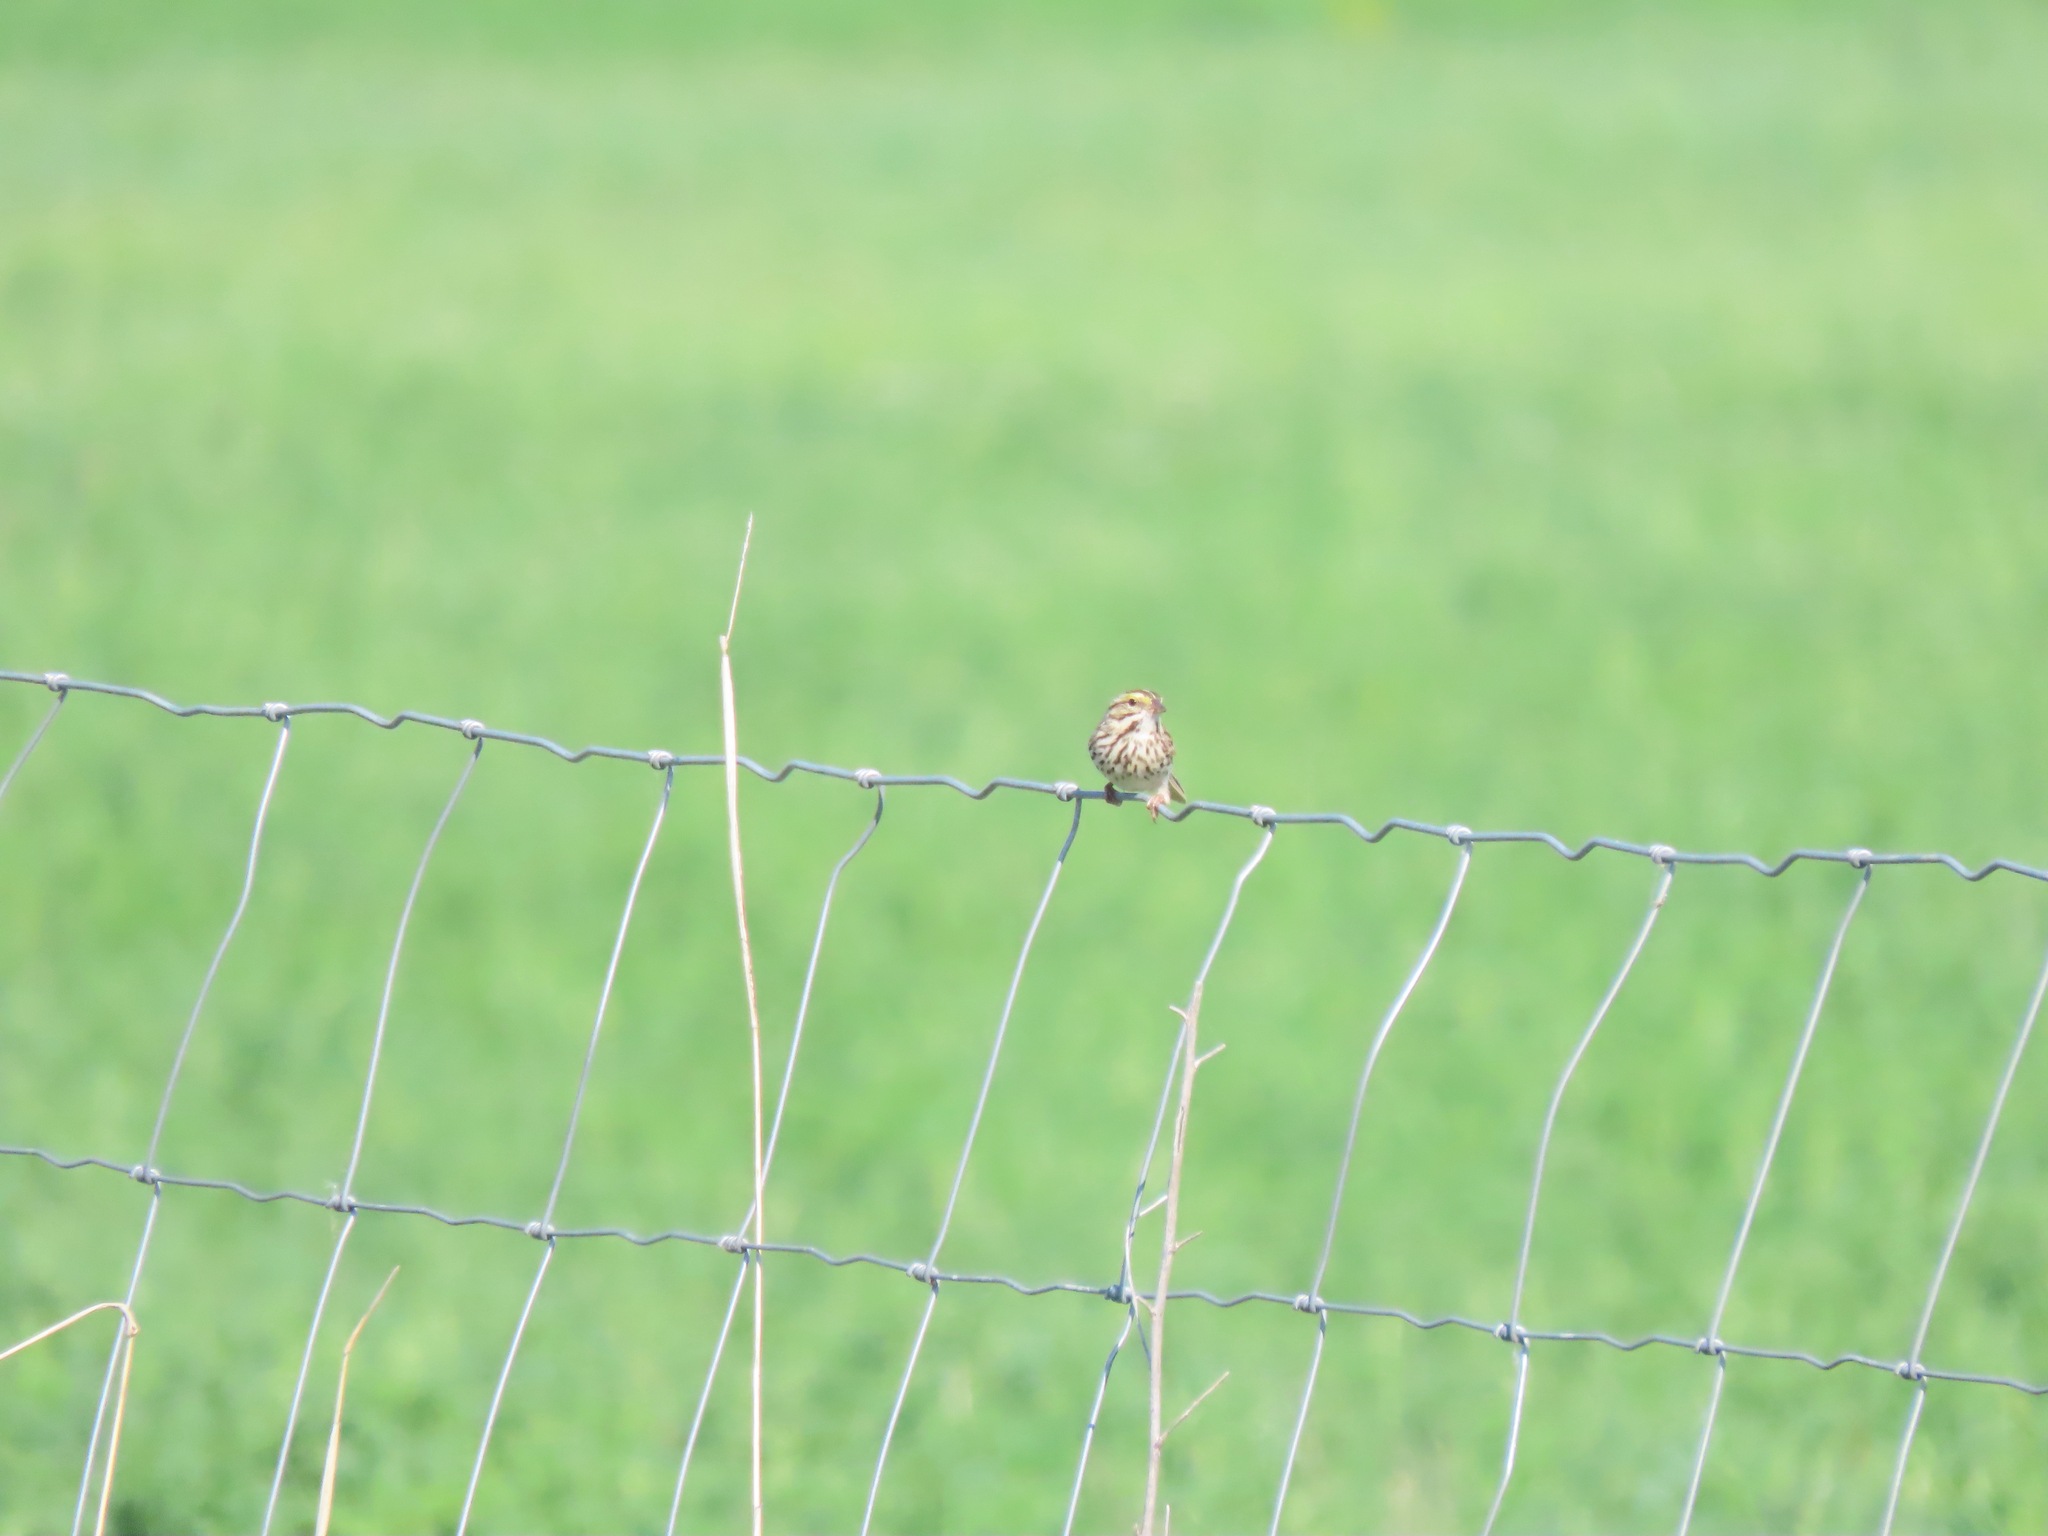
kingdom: Animalia
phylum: Chordata
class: Aves
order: Passeriformes
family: Passerellidae
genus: Passerculus
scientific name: Passerculus sandwichensis
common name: Savannah sparrow
